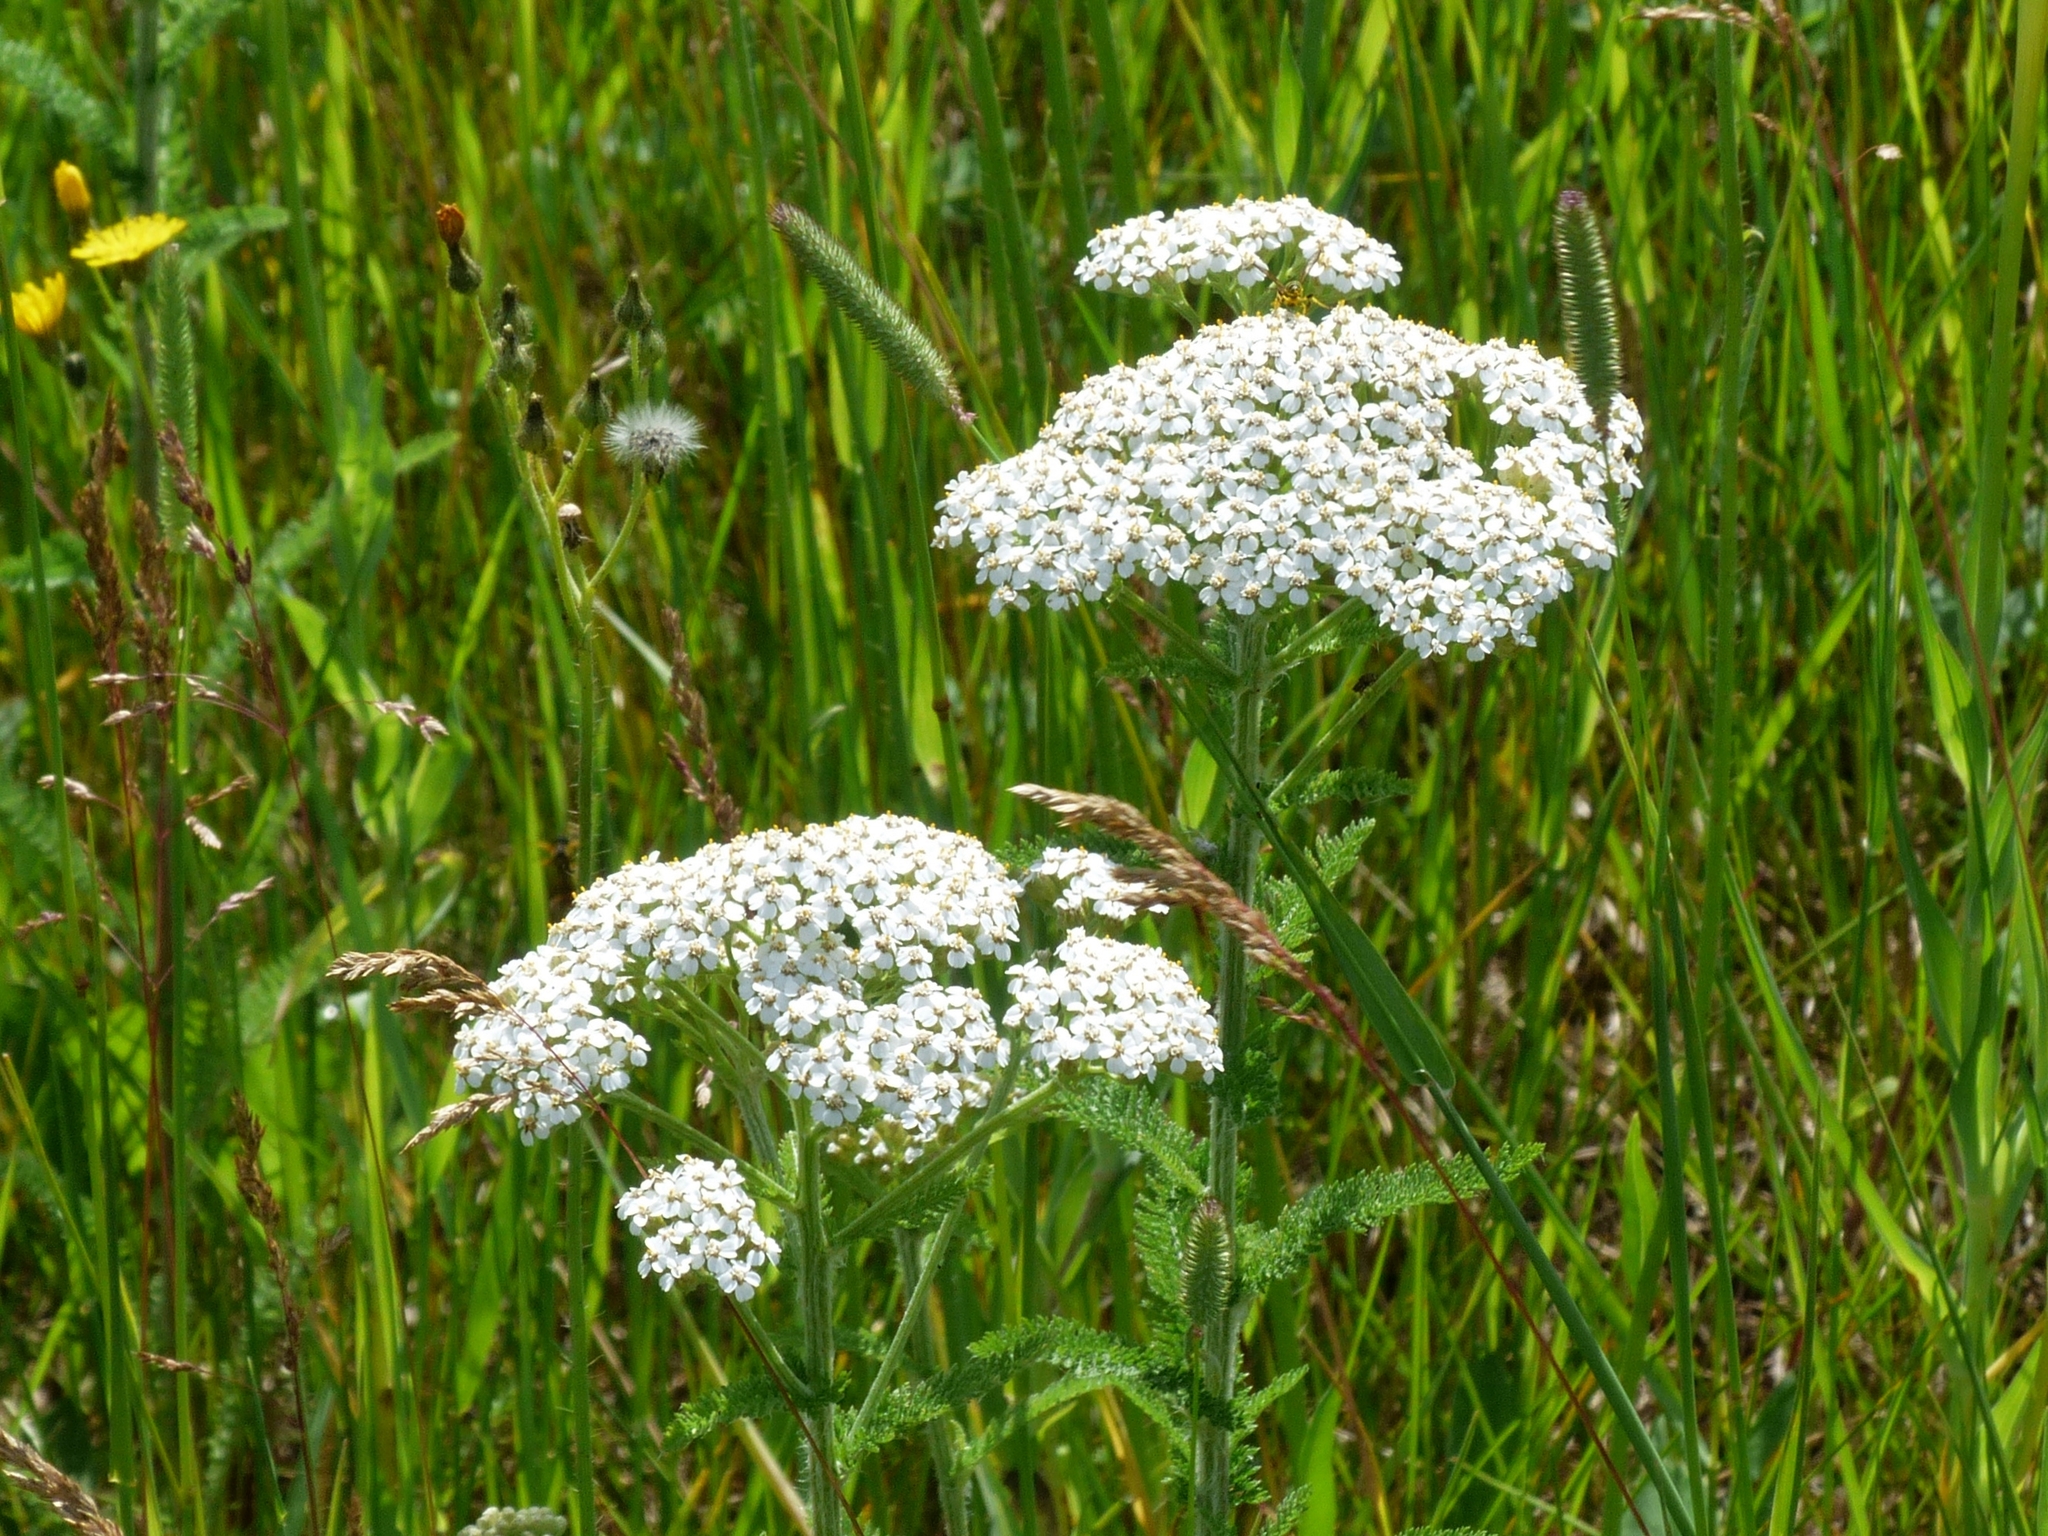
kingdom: Plantae
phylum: Tracheophyta
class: Magnoliopsida
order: Asterales
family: Asteraceae
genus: Achillea
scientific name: Achillea millefolium
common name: Yarrow
